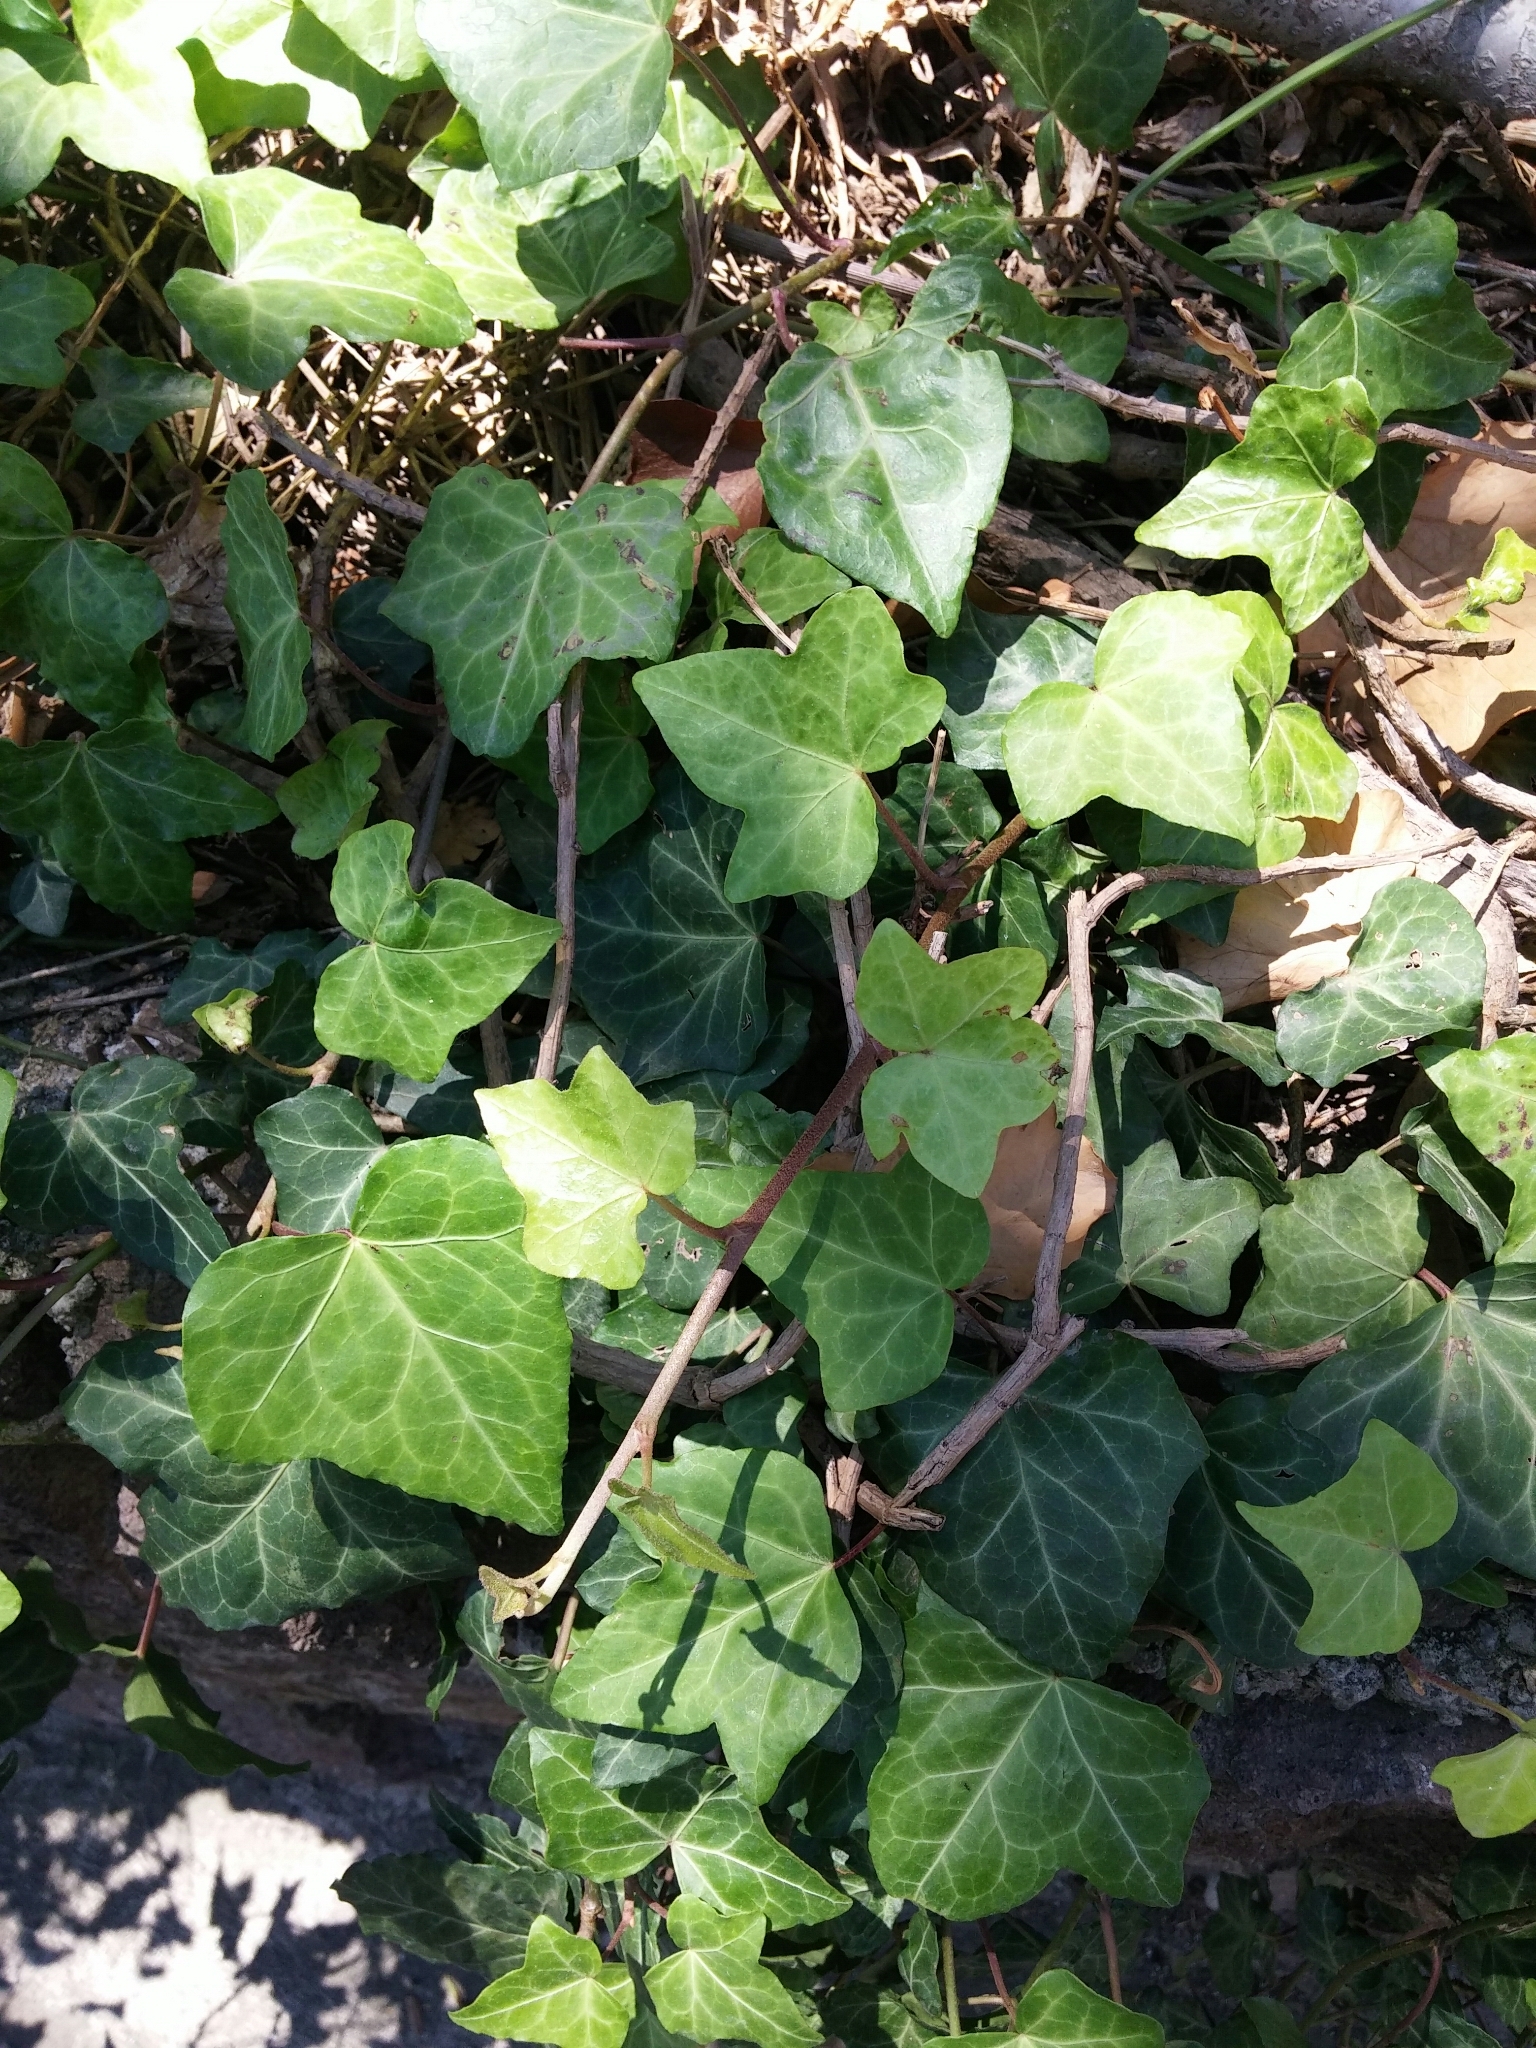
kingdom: Plantae
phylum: Tracheophyta
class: Magnoliopsida
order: Apiales
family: Araliaceae
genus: Hedera
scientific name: Hedera helix
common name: Ivy
